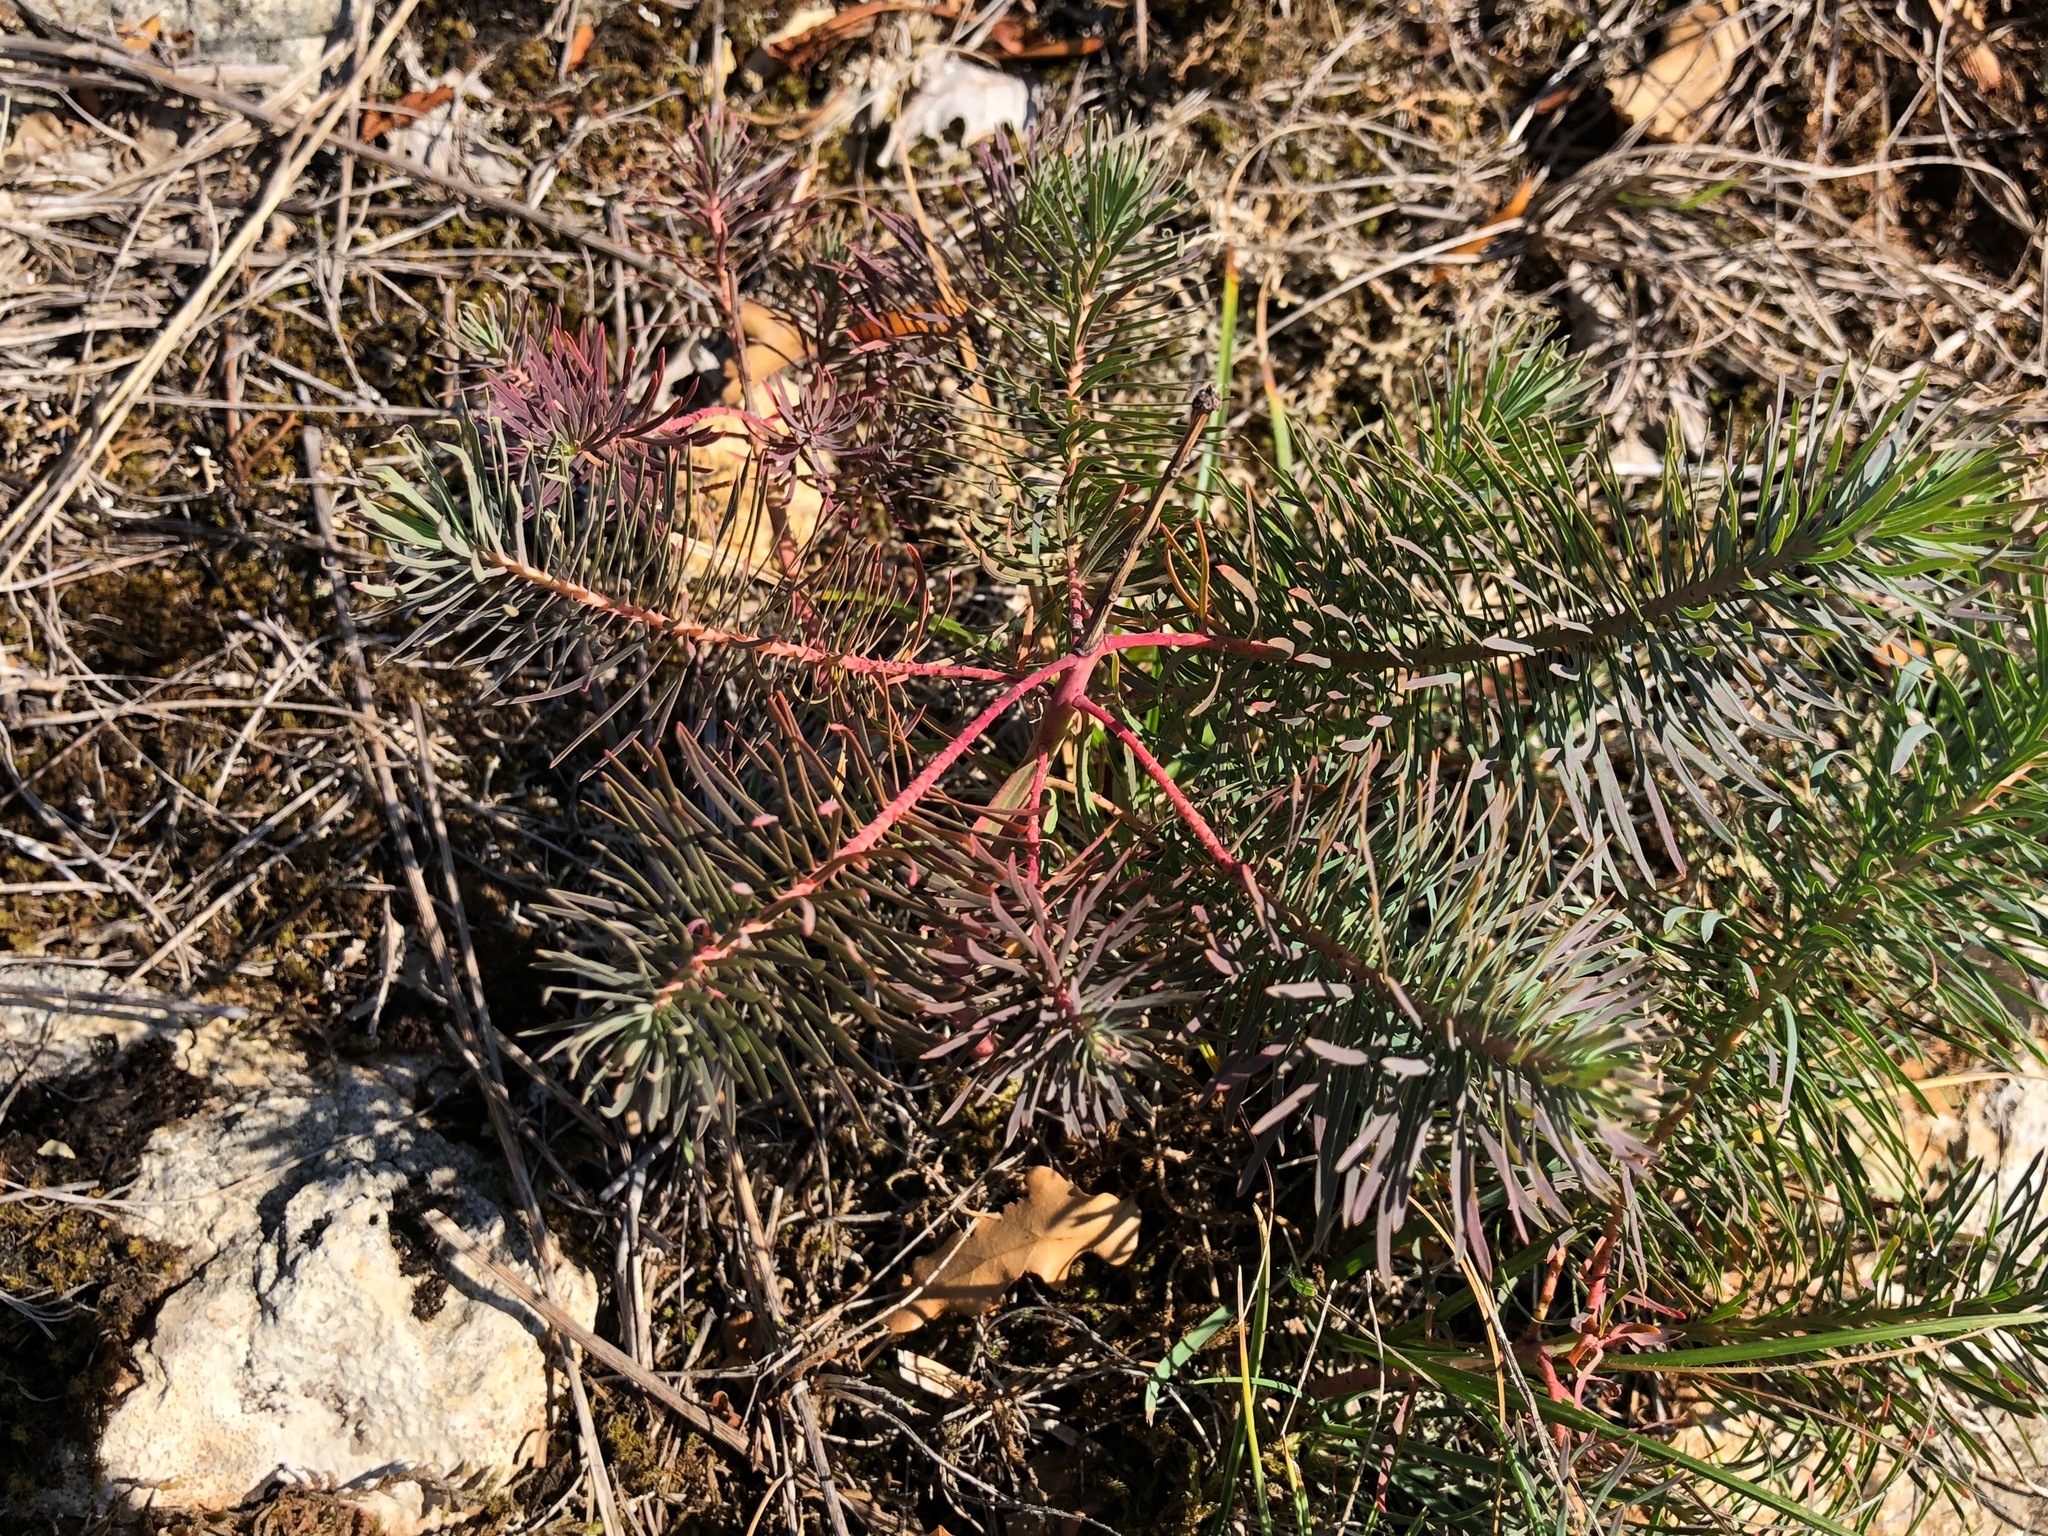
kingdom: Plantae
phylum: Tracheophyta
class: Magnoliopsida
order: Malpighiales
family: Euphorbiaceae
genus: Euphorbia
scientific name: Euphorbia cyparissias
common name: Cypress spurge
